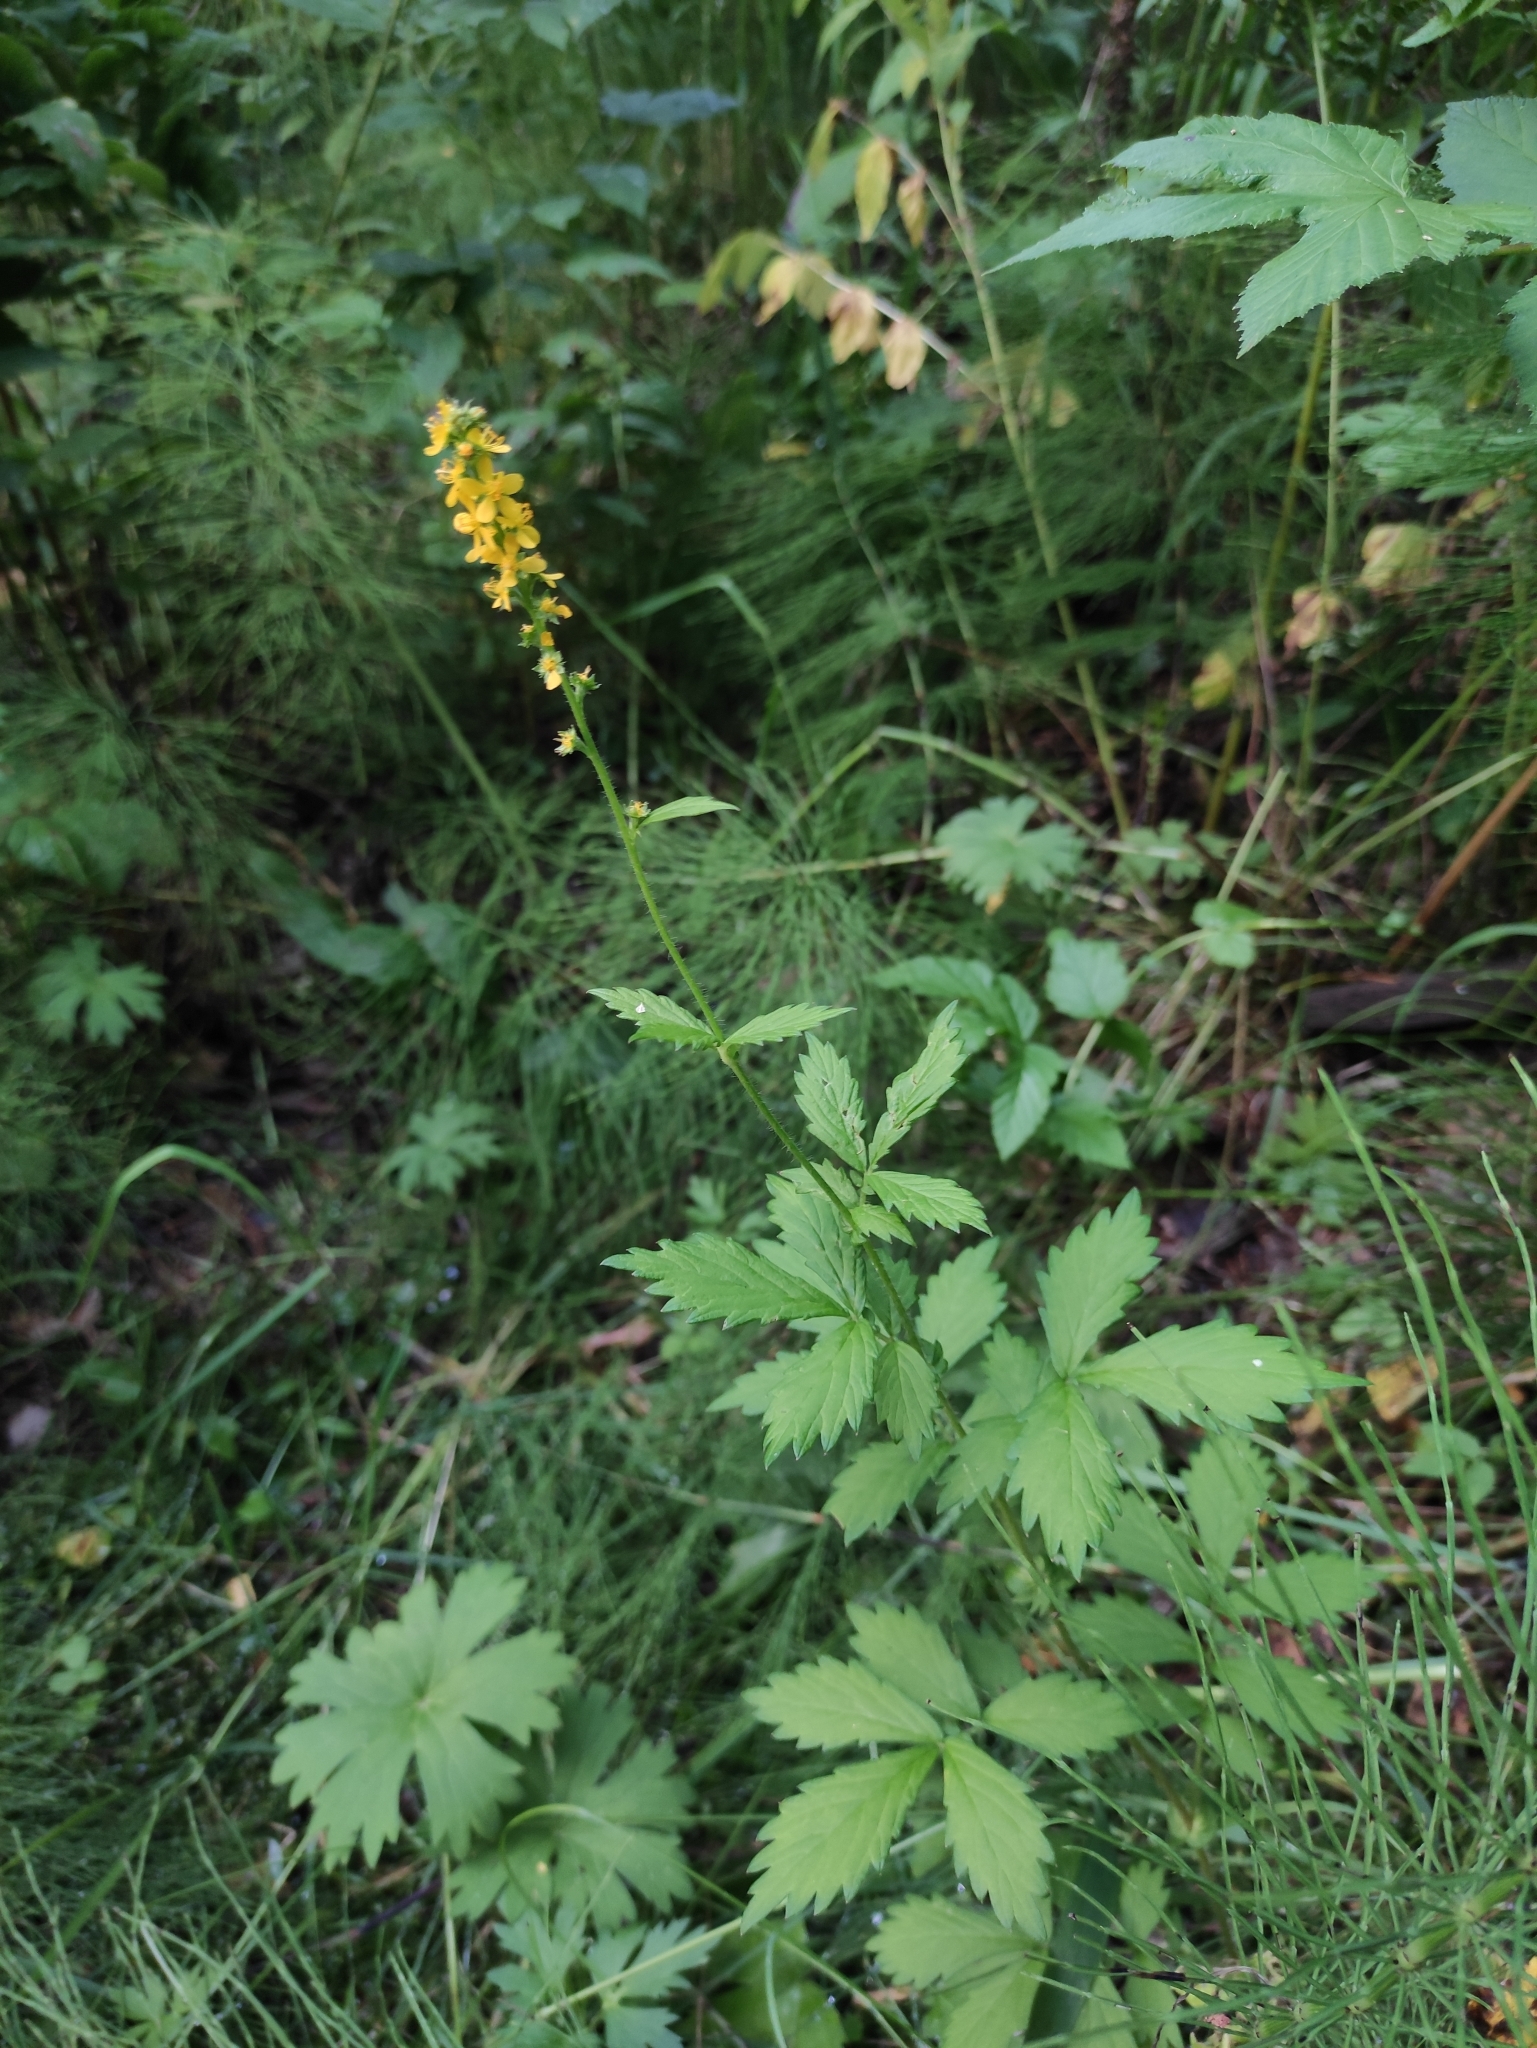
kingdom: Plantae
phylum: Tracheophyta
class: Magnoliopsida
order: Rosales
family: Rosaceae
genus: Agrimonia
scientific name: Agrimonia pilosa
